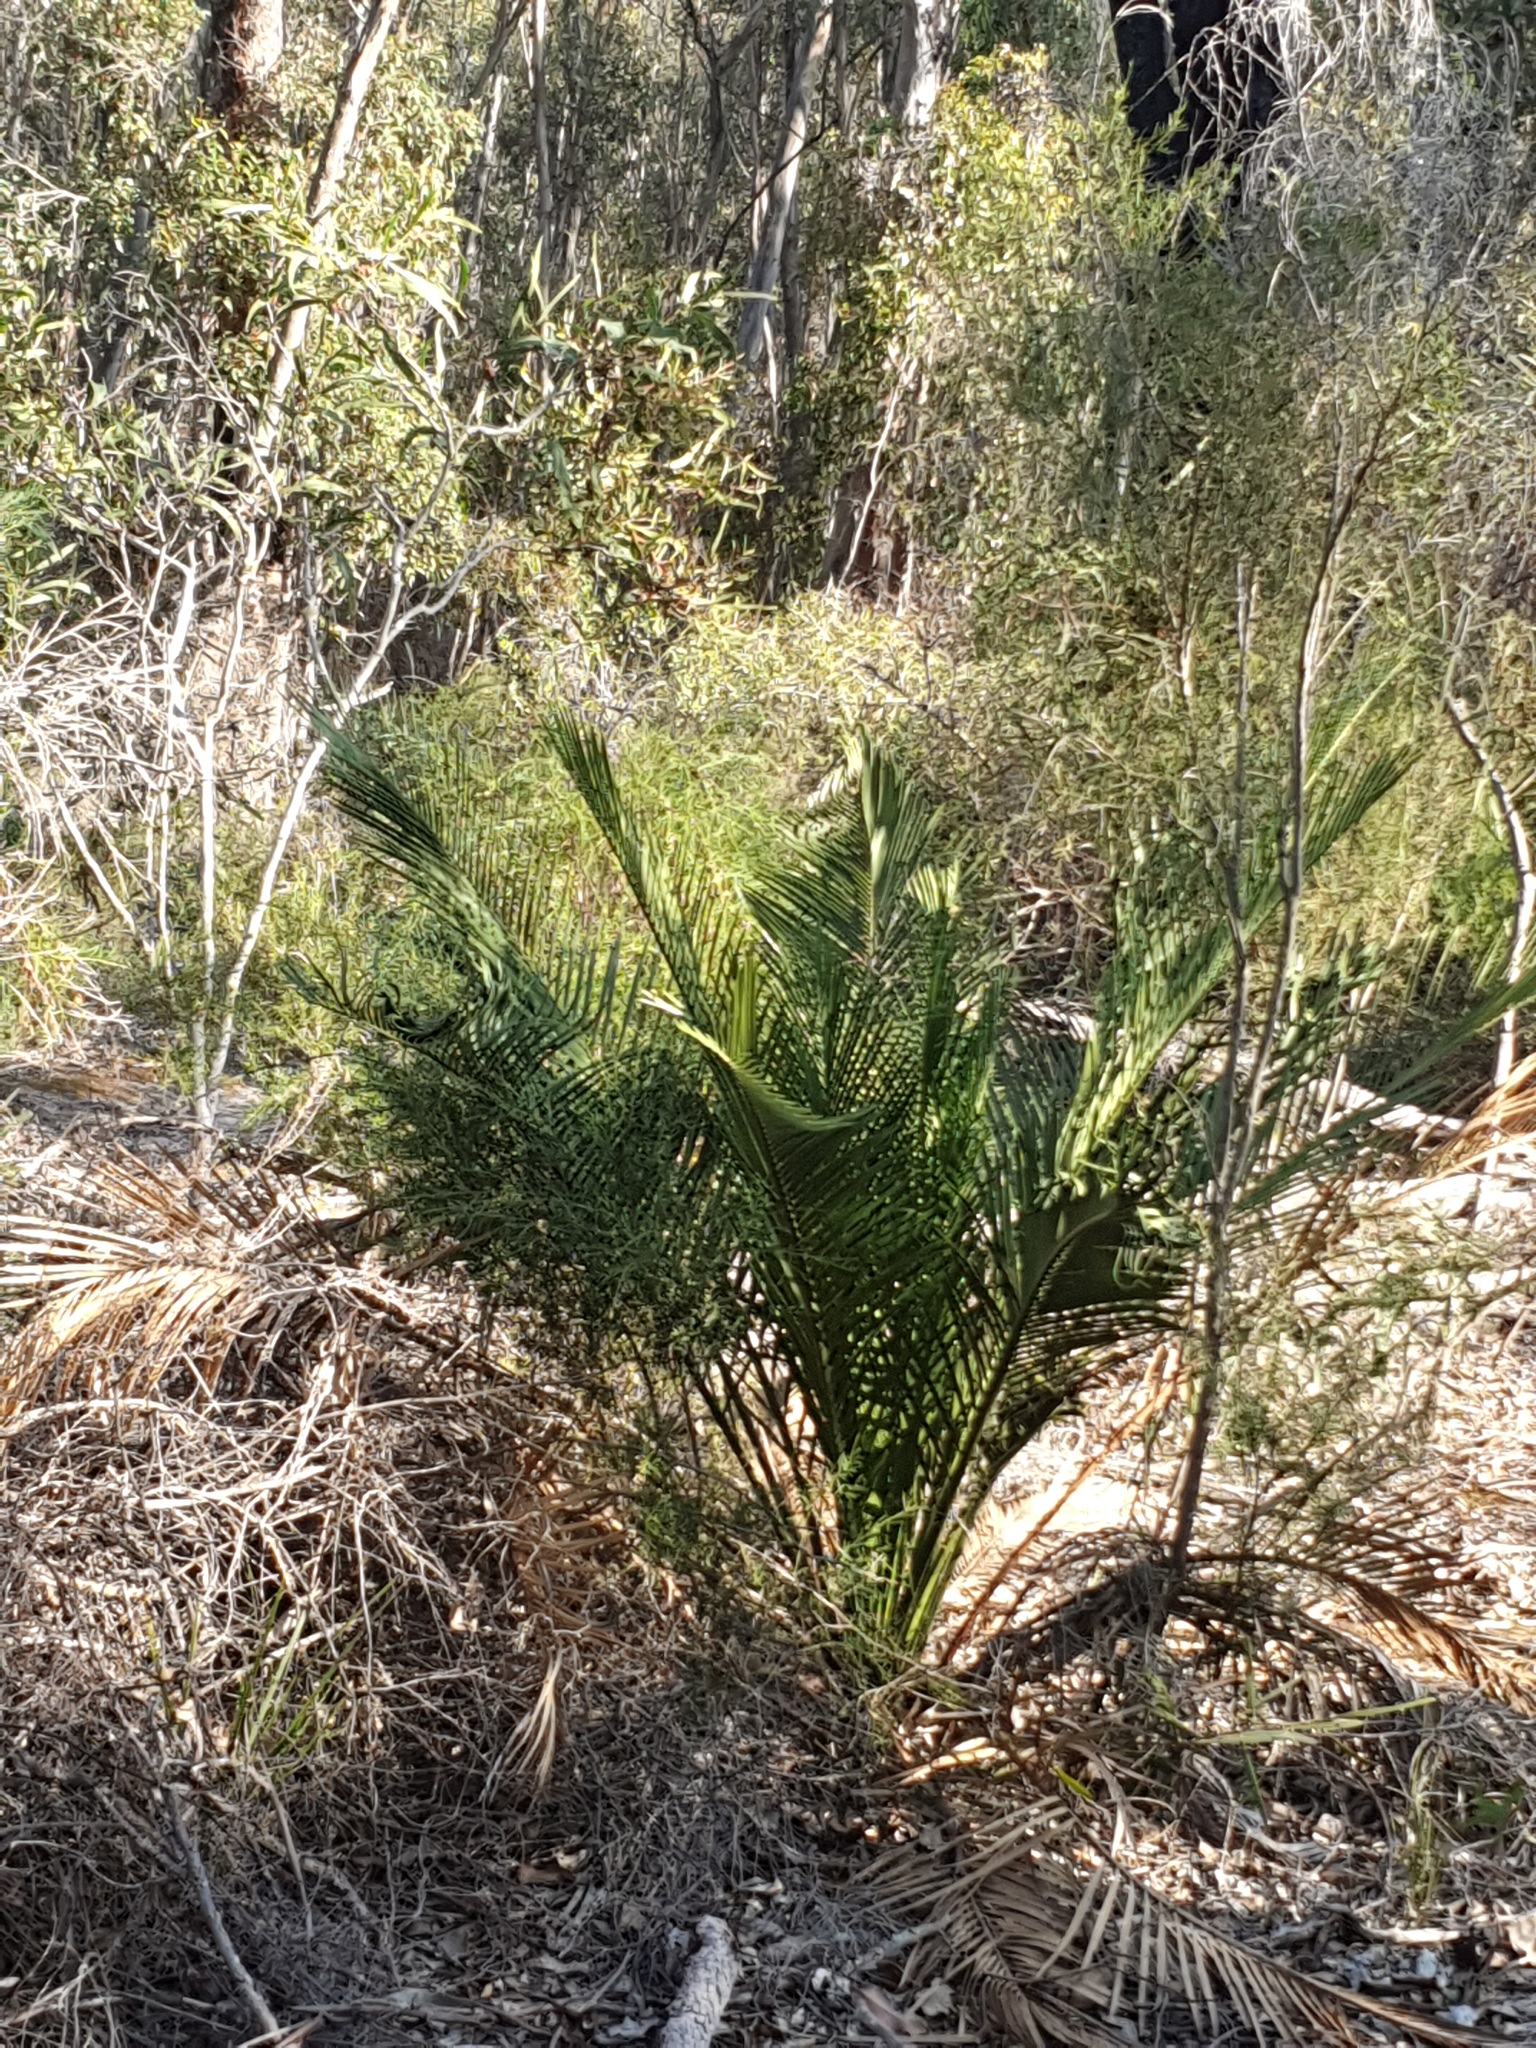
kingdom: Plantae
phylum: Tracheophyta
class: Cycadopsida
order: Cycadales
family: Zamiaceae
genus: Macrozamia
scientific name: Macrozamia riedlei
